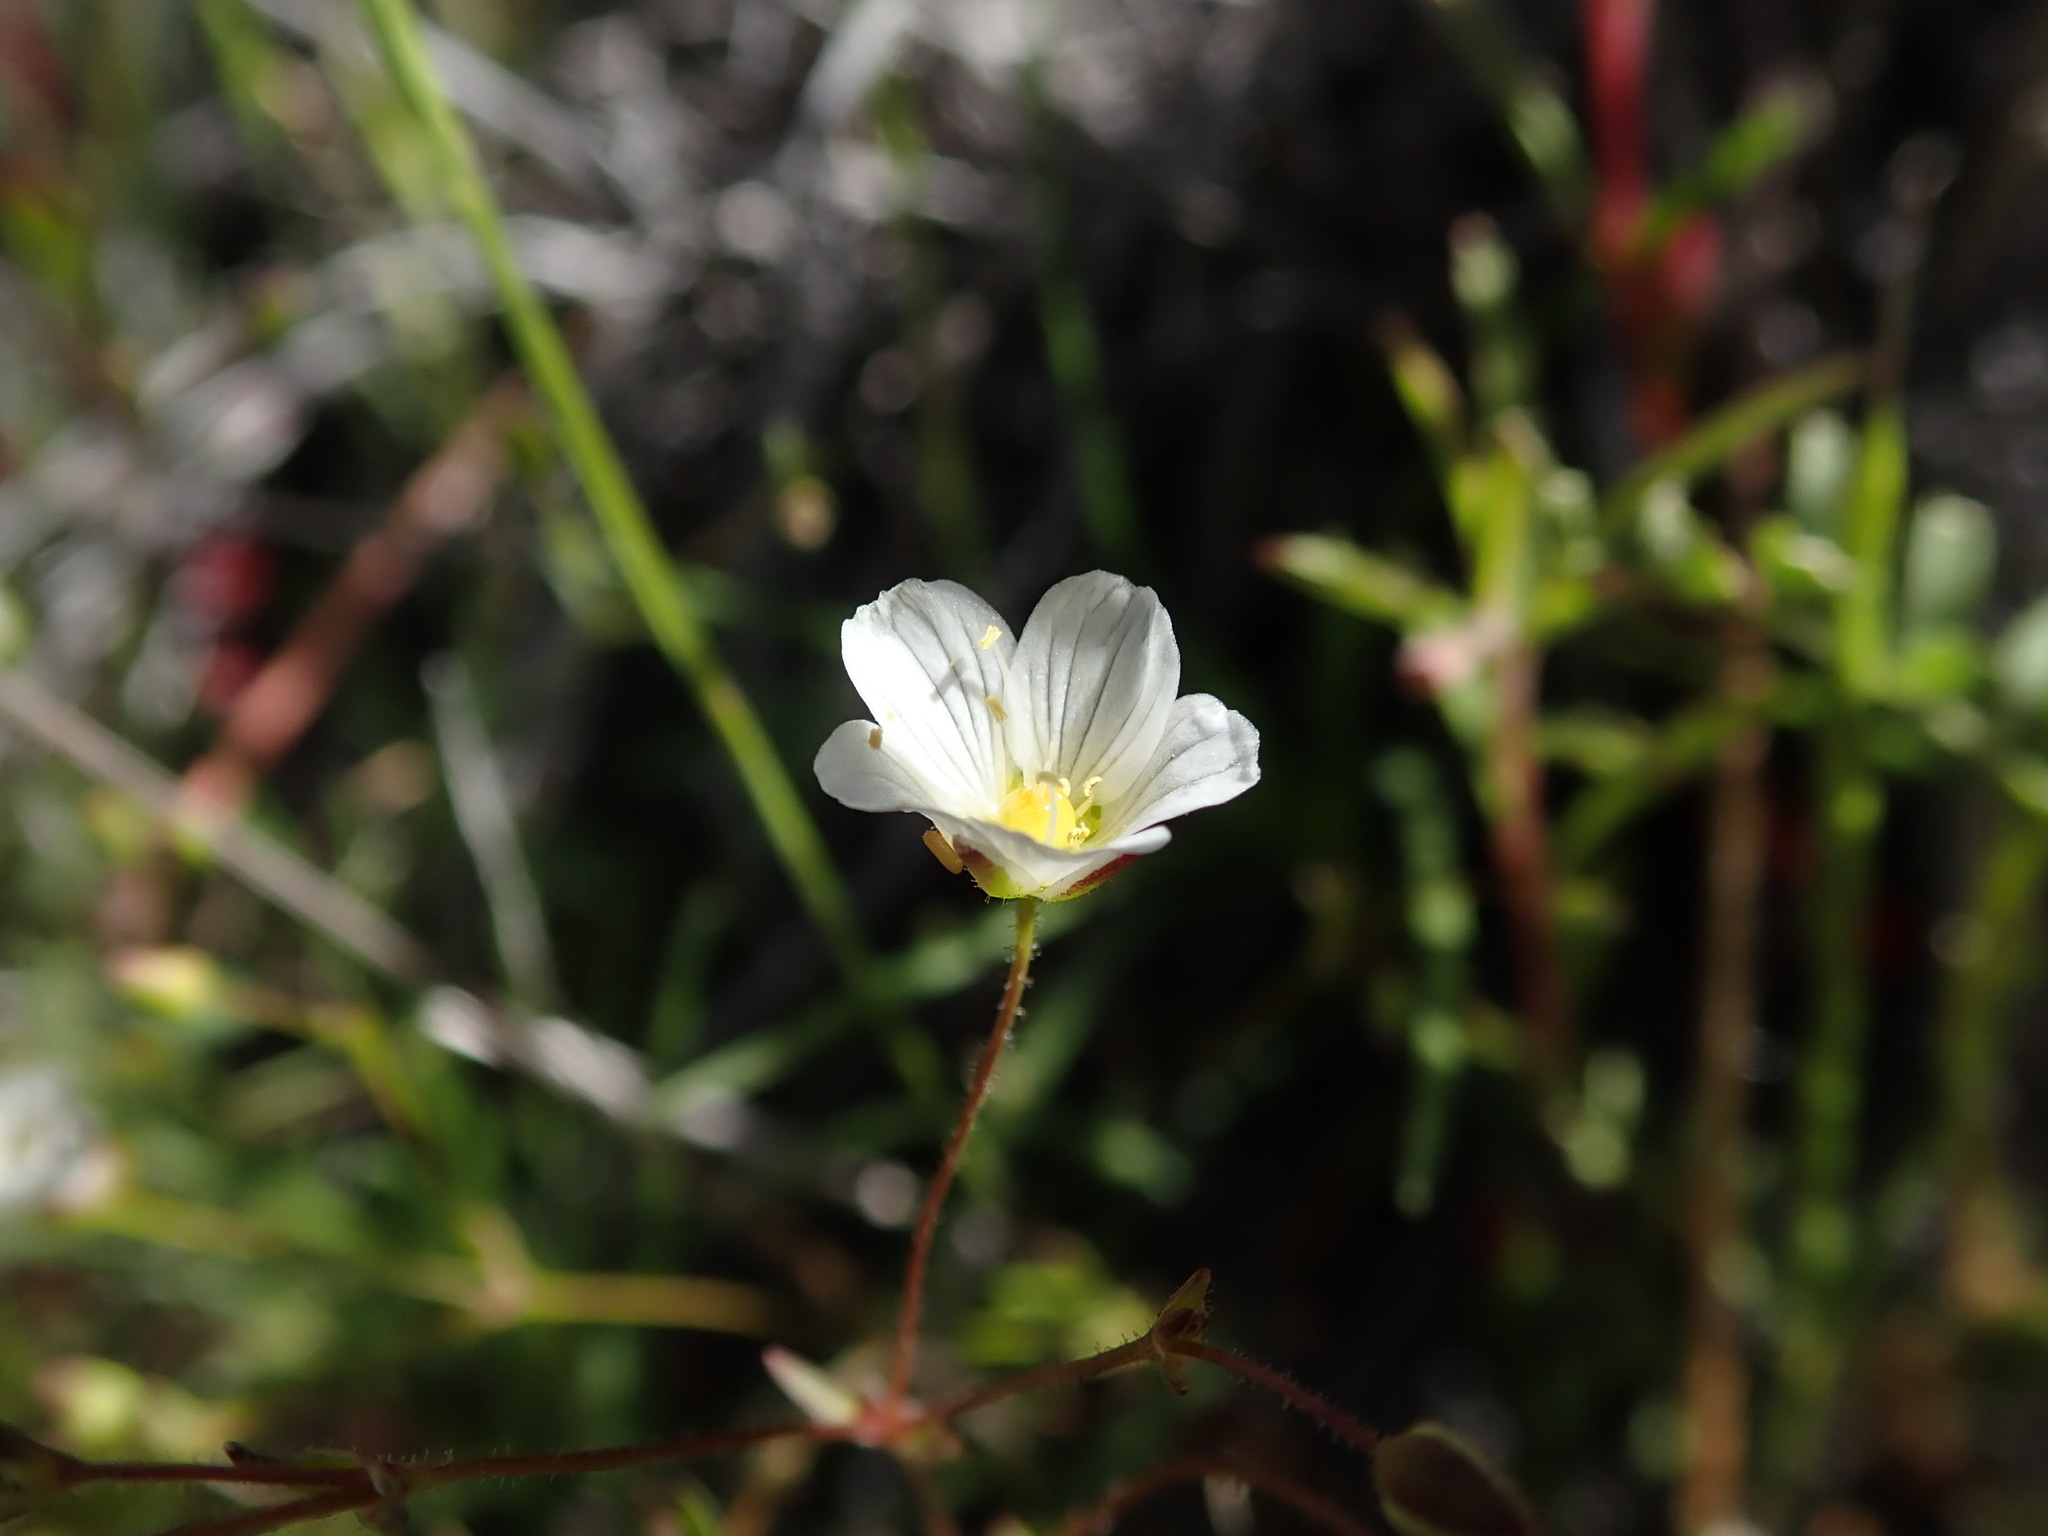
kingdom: Plantae
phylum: Tracheophyta
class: Magnoliopsida
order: Caryophyllales
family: Caryophyllaceae
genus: Sabulina
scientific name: Sabulina douglasii
